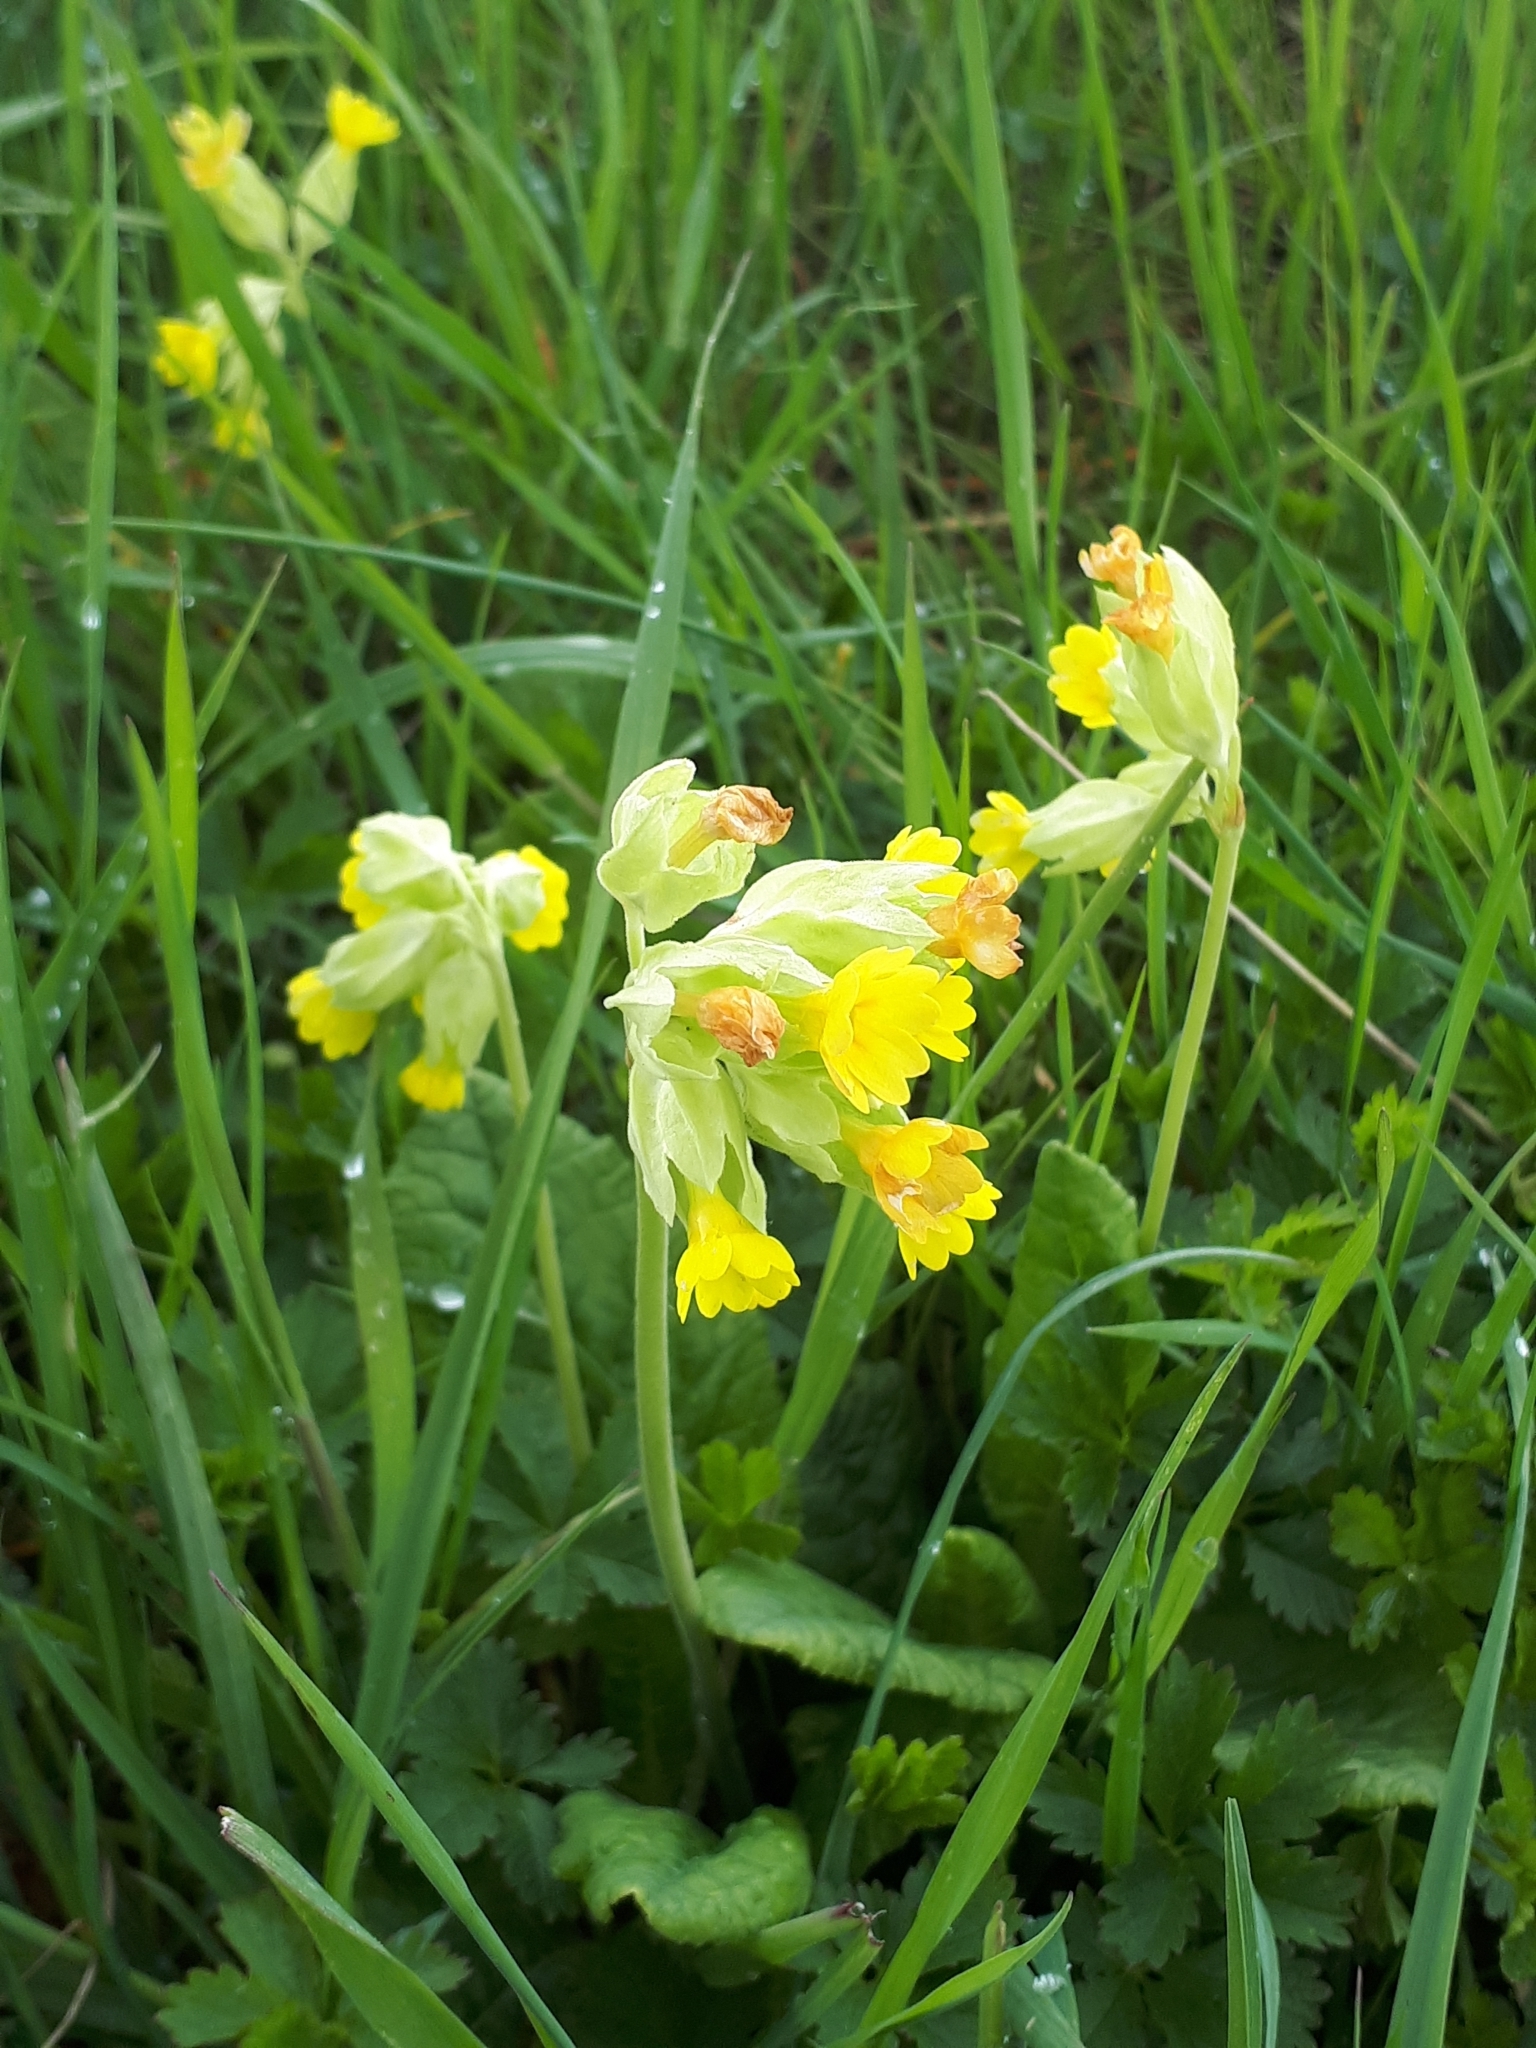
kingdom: Plantae
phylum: Tracheophyta
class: Magnoliopsida
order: Ericales
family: Primulaceae
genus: Primula
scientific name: Primula veris
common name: Cowslip
